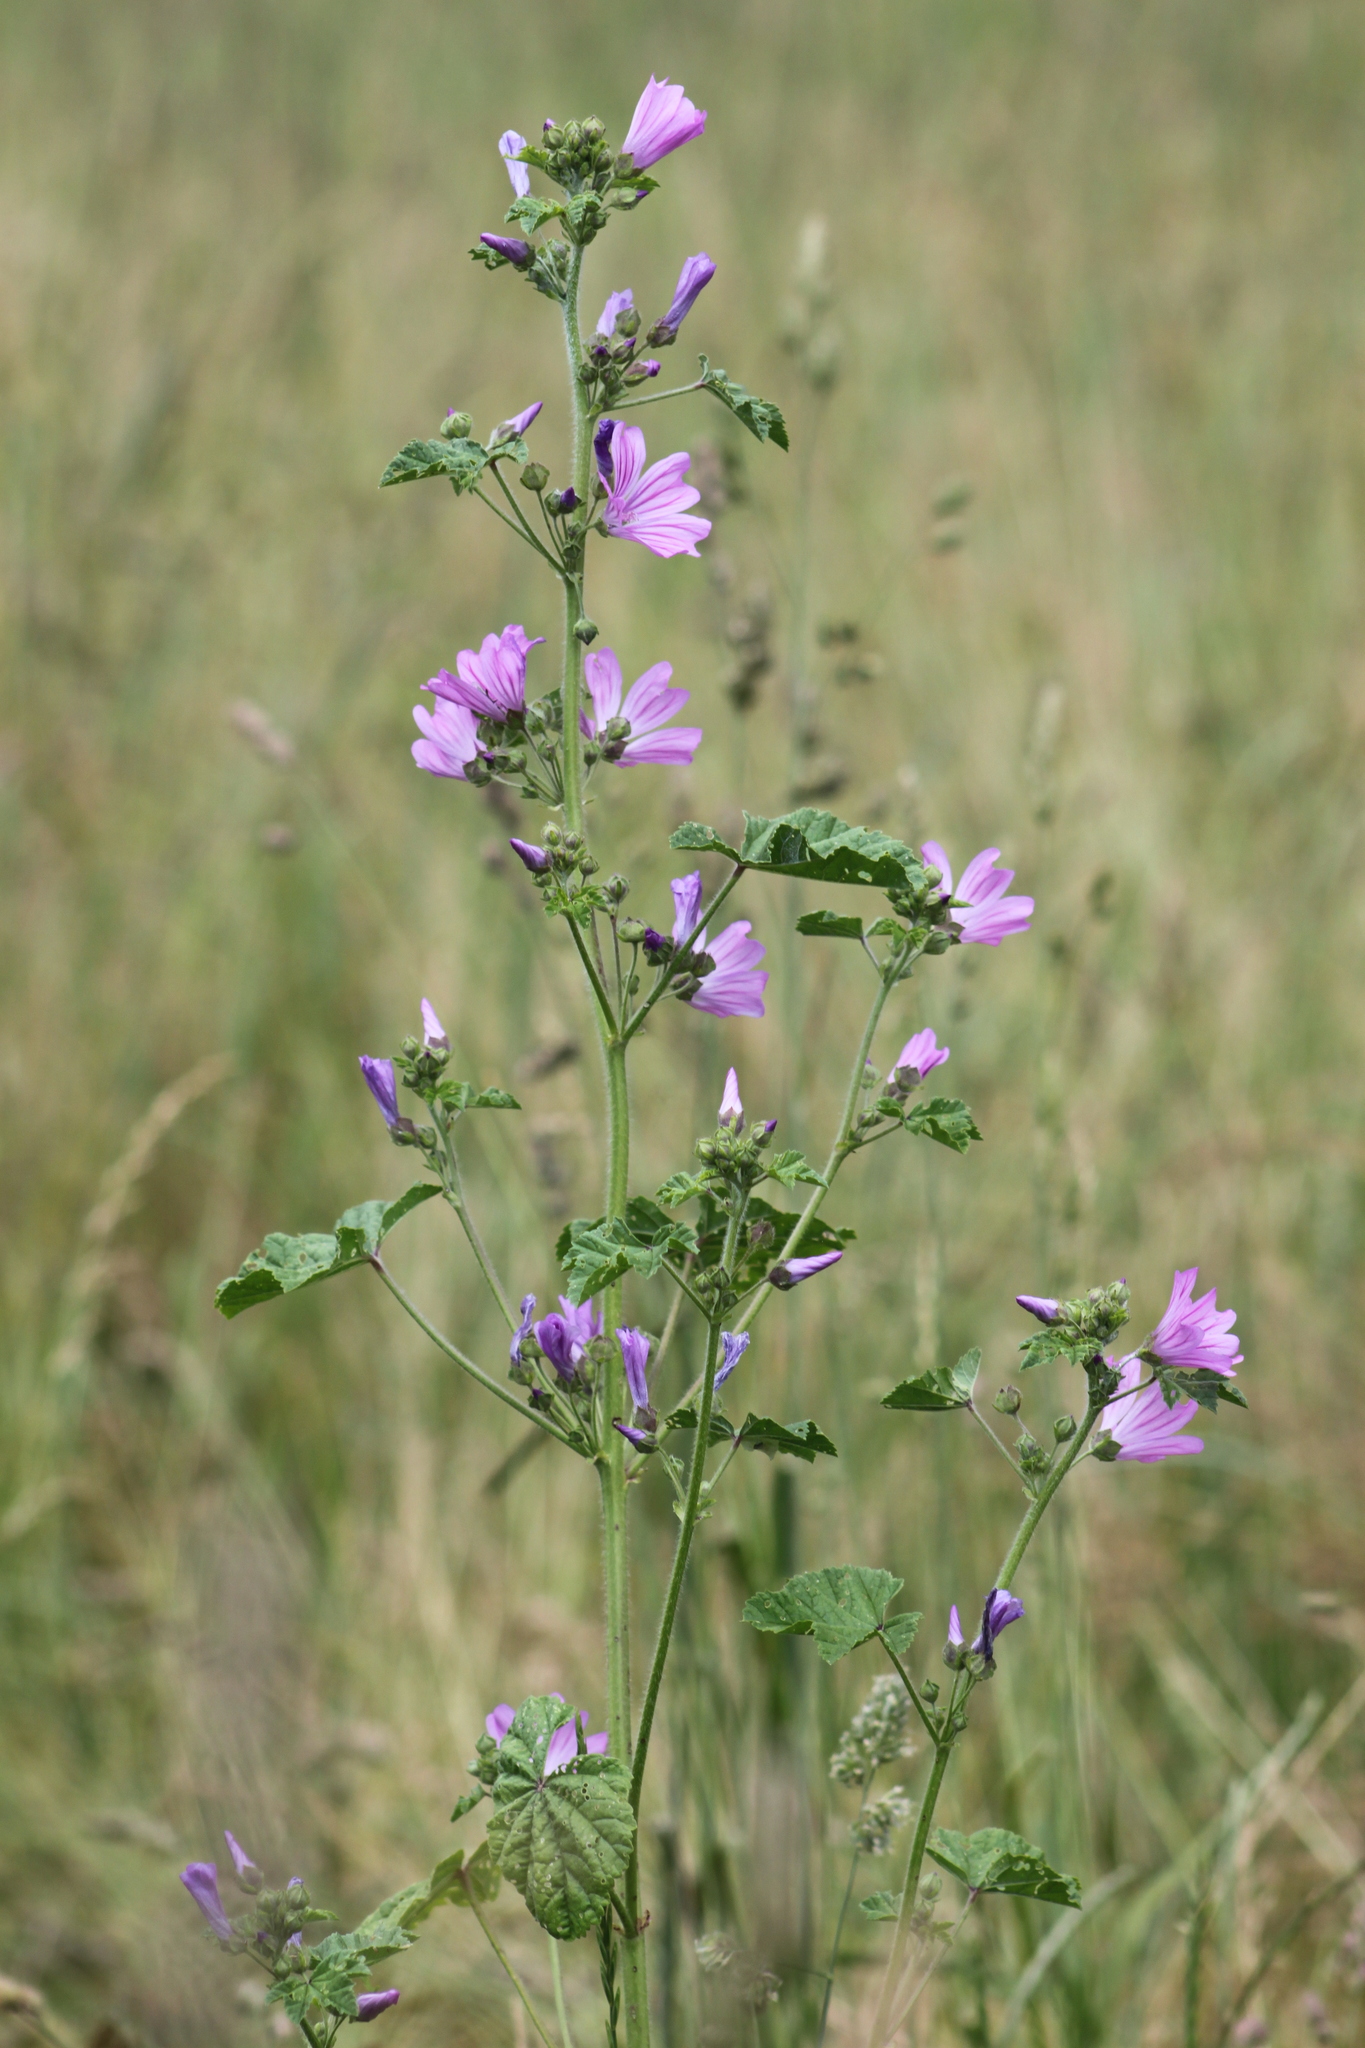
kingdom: Plantae
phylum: Tracheophyta
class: Magnoliopsida
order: Malvales
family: Malvaceae
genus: Malva
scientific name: Malva sylvestris
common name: Common mallow
